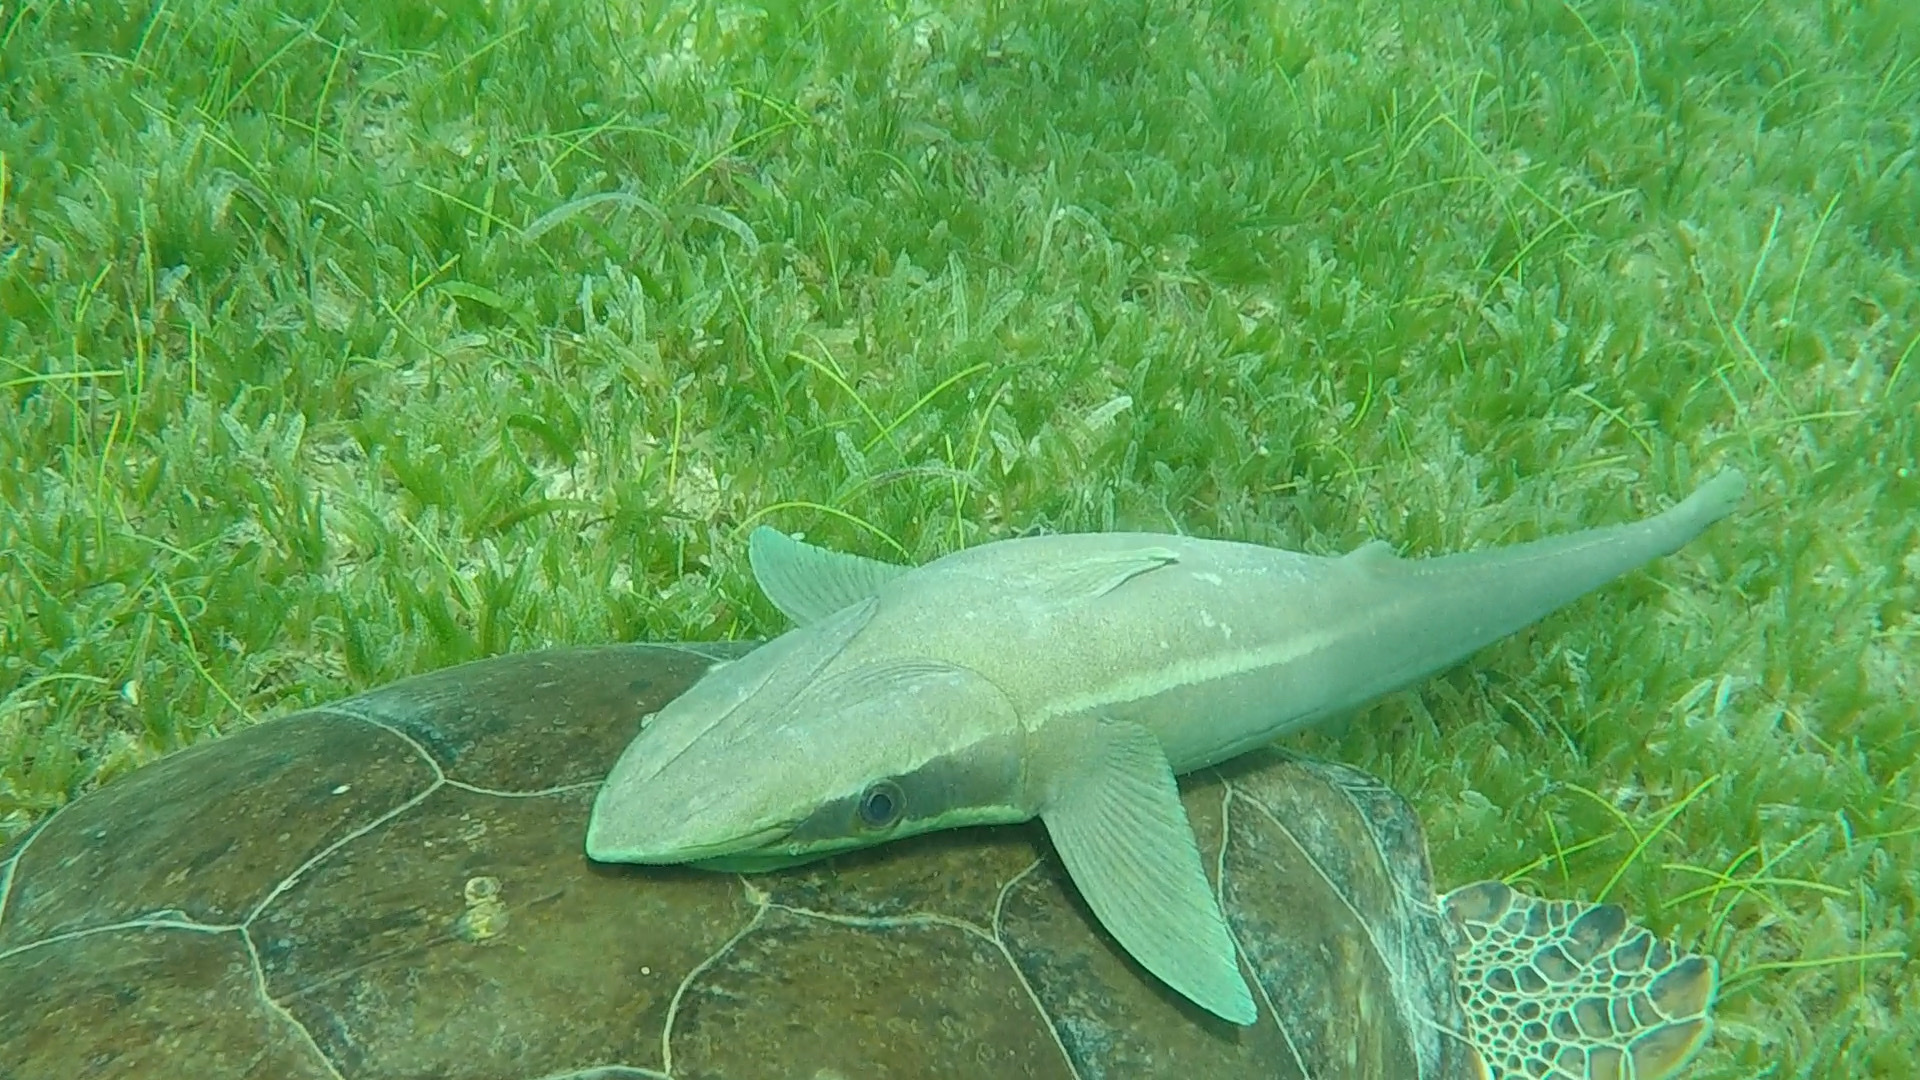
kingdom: Animalia
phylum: Chordata
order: Perciformes
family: Echeneidae
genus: Echeneis
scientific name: Echeneis naucrates
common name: Sharksucker
